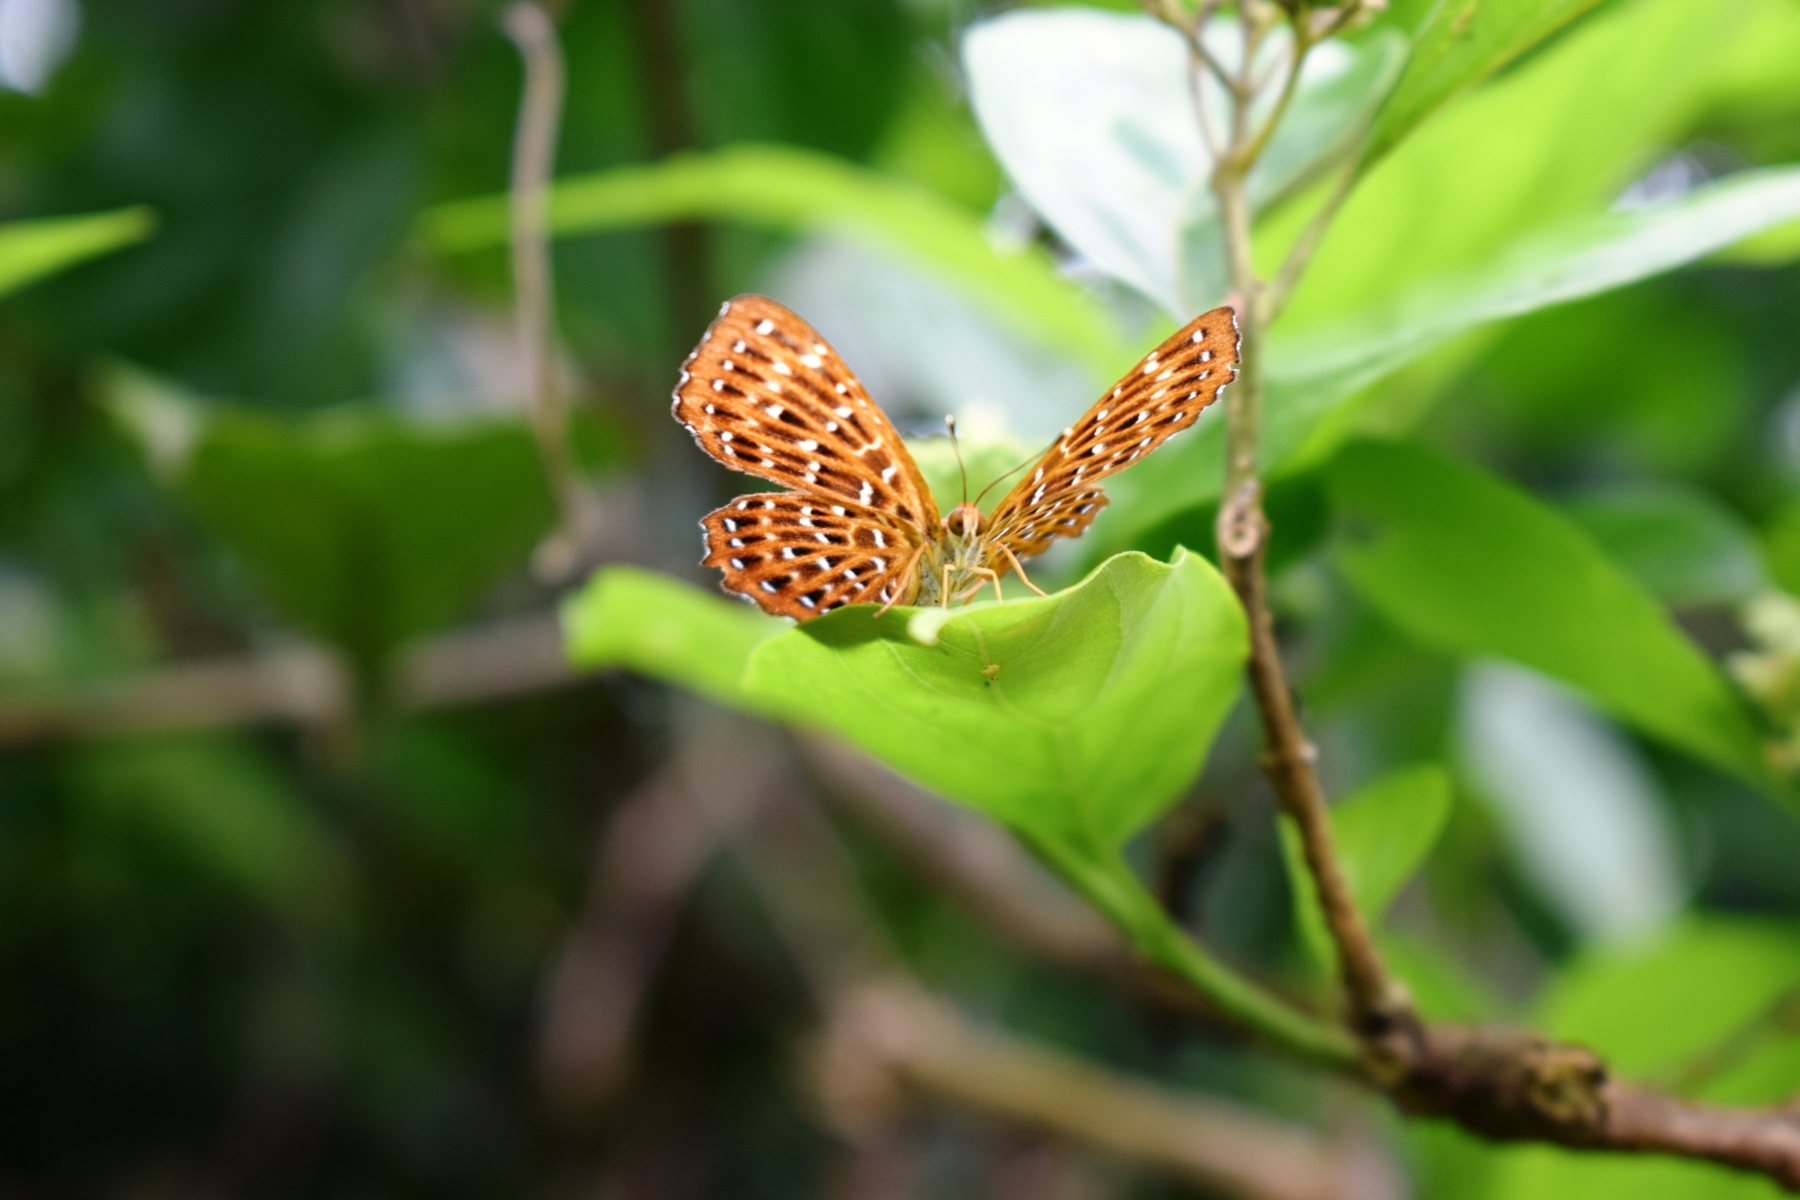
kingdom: Animalia
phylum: Arthropoda
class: Insecta
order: Lepidoptera
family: Riodinidae
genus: Zemeros
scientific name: Zemeros flegyas
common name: Punchinello
